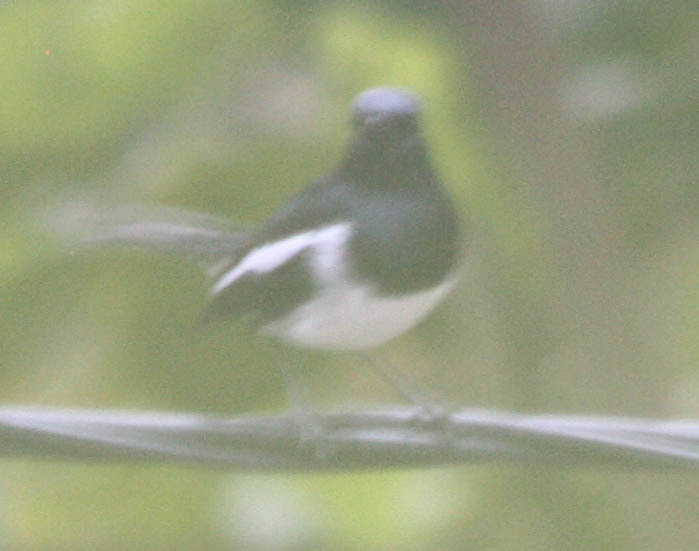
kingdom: Animalia
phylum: Chordata
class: Aves
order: Passeriformes
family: Muscicapidae
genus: Copsychus
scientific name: Copsychus saularis
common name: Oriental magpie-robin
